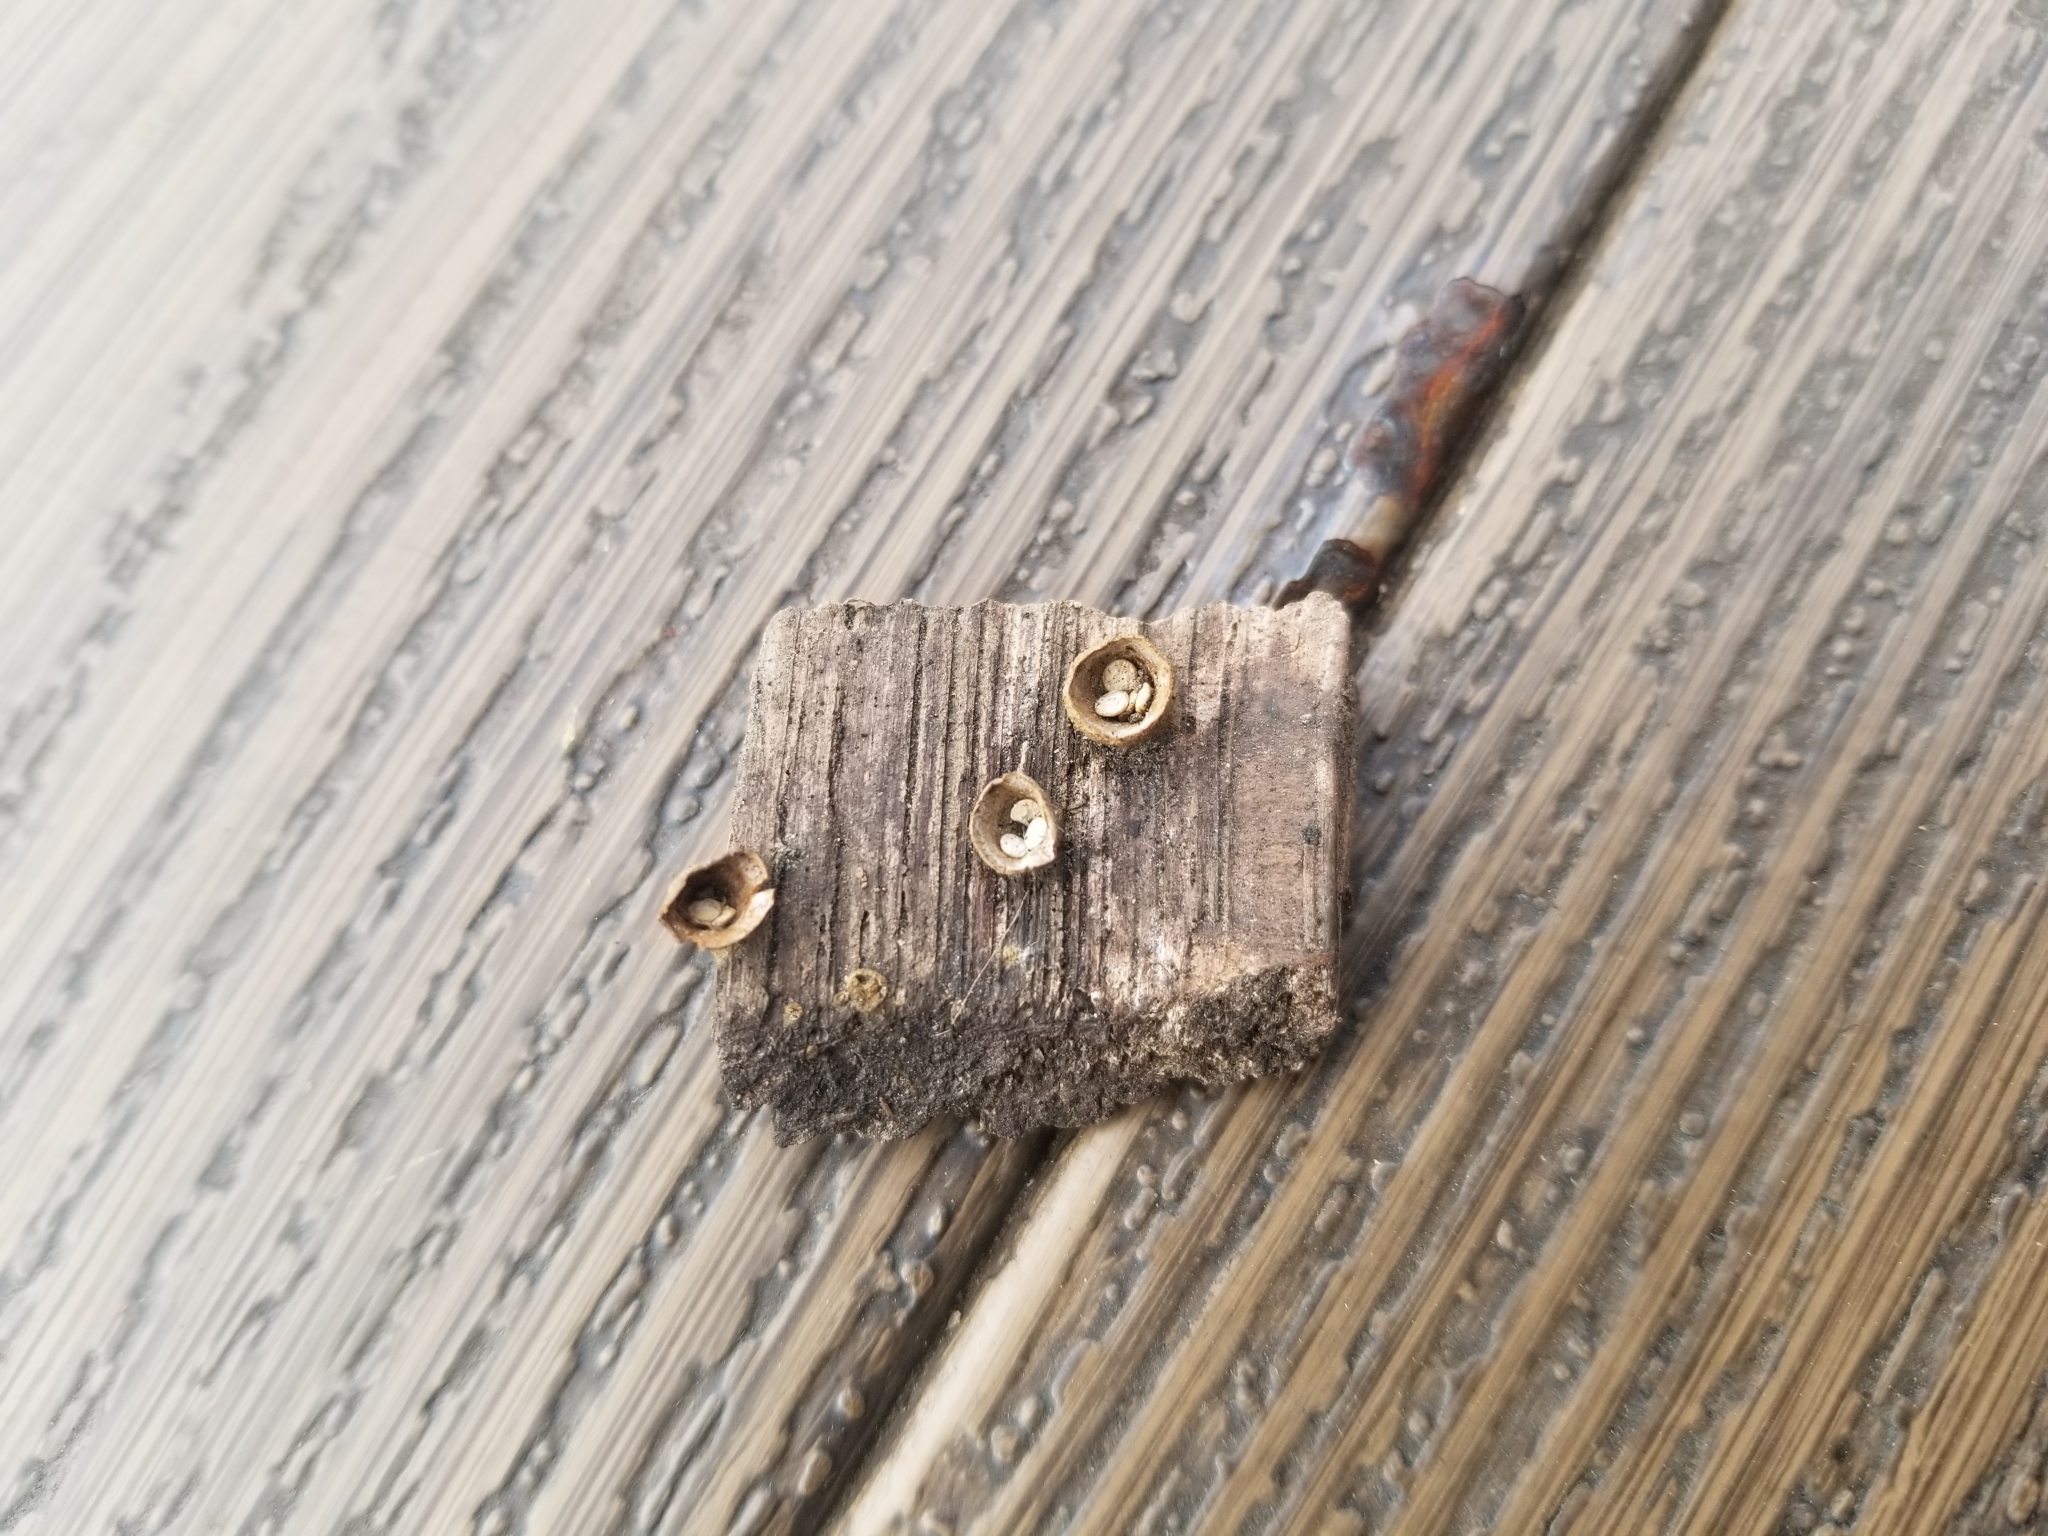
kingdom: Fungi
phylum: Basidiomycota
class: Agaricomycetes
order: Agaricales
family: Nidulariaceae
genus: Crucibulum
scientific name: Crucibulum laeve
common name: Common bird's nest
